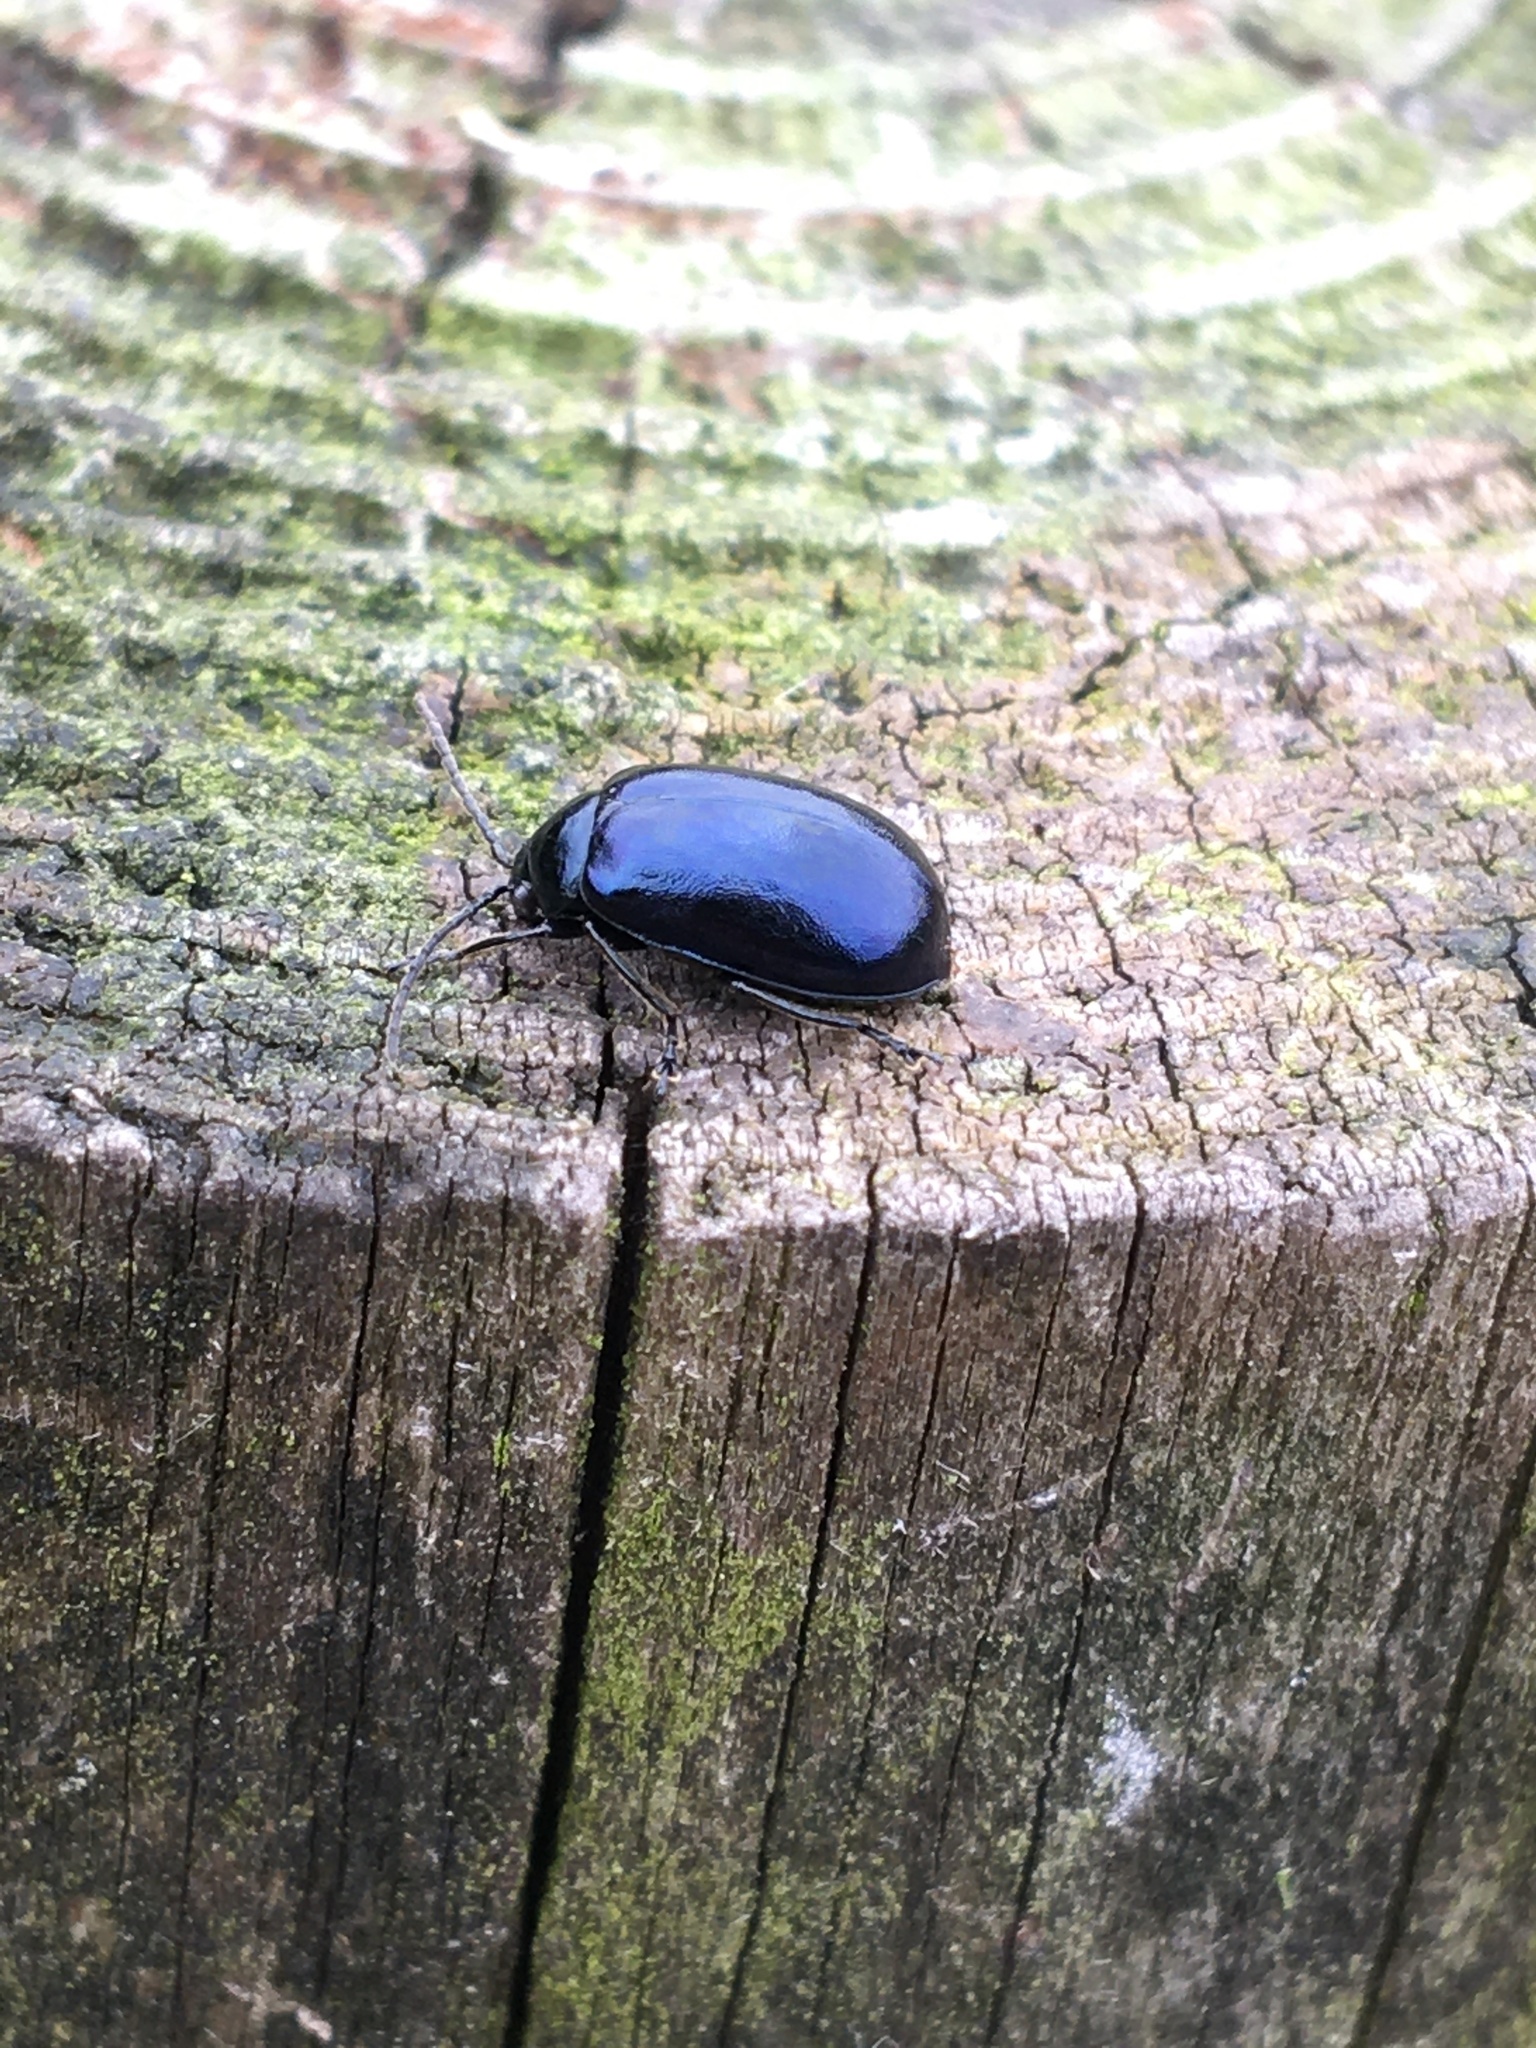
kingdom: Animalia
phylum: Arthropoda
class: Insecta
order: Coleoptera
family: Chrysomelidae
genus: Agelastica
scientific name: Agelastica alni
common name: Alder leaf beetle
